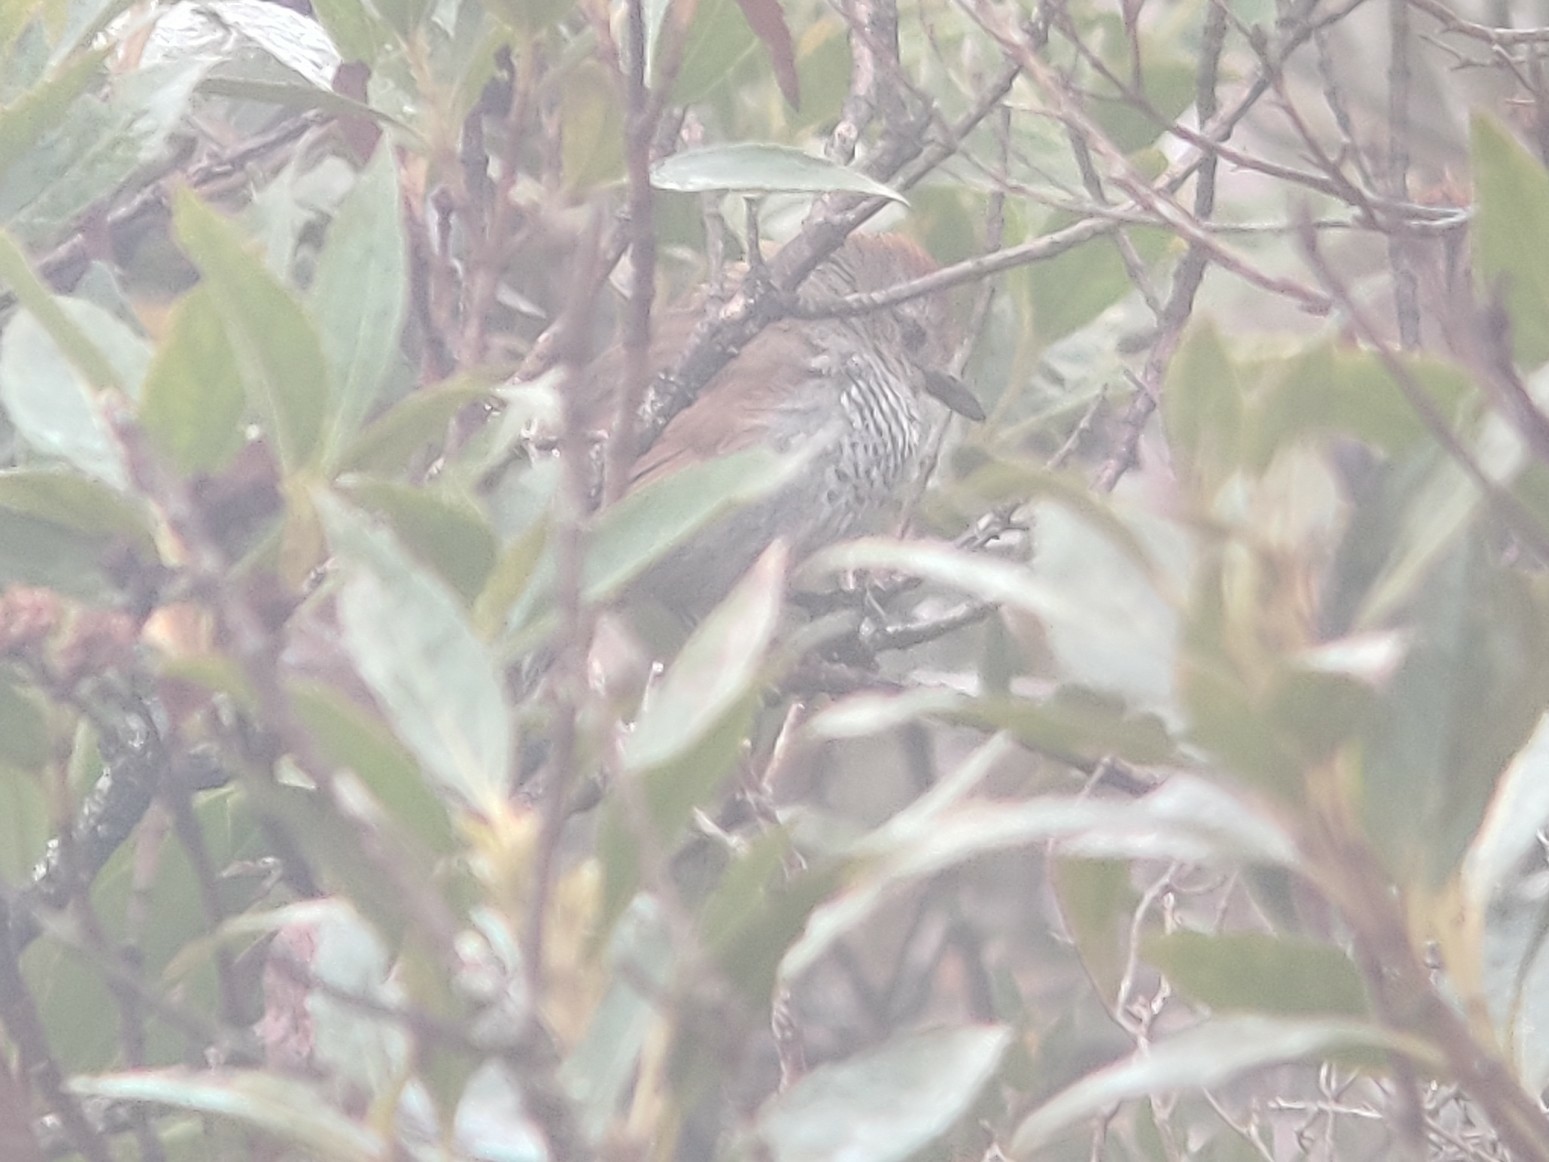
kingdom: Animalia
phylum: Chordata
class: Aves
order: Passeriformes
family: Thamnophilidae
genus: Thamnophilus
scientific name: Thamnophilus ruficapillus
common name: Rufous-capped antshrike
